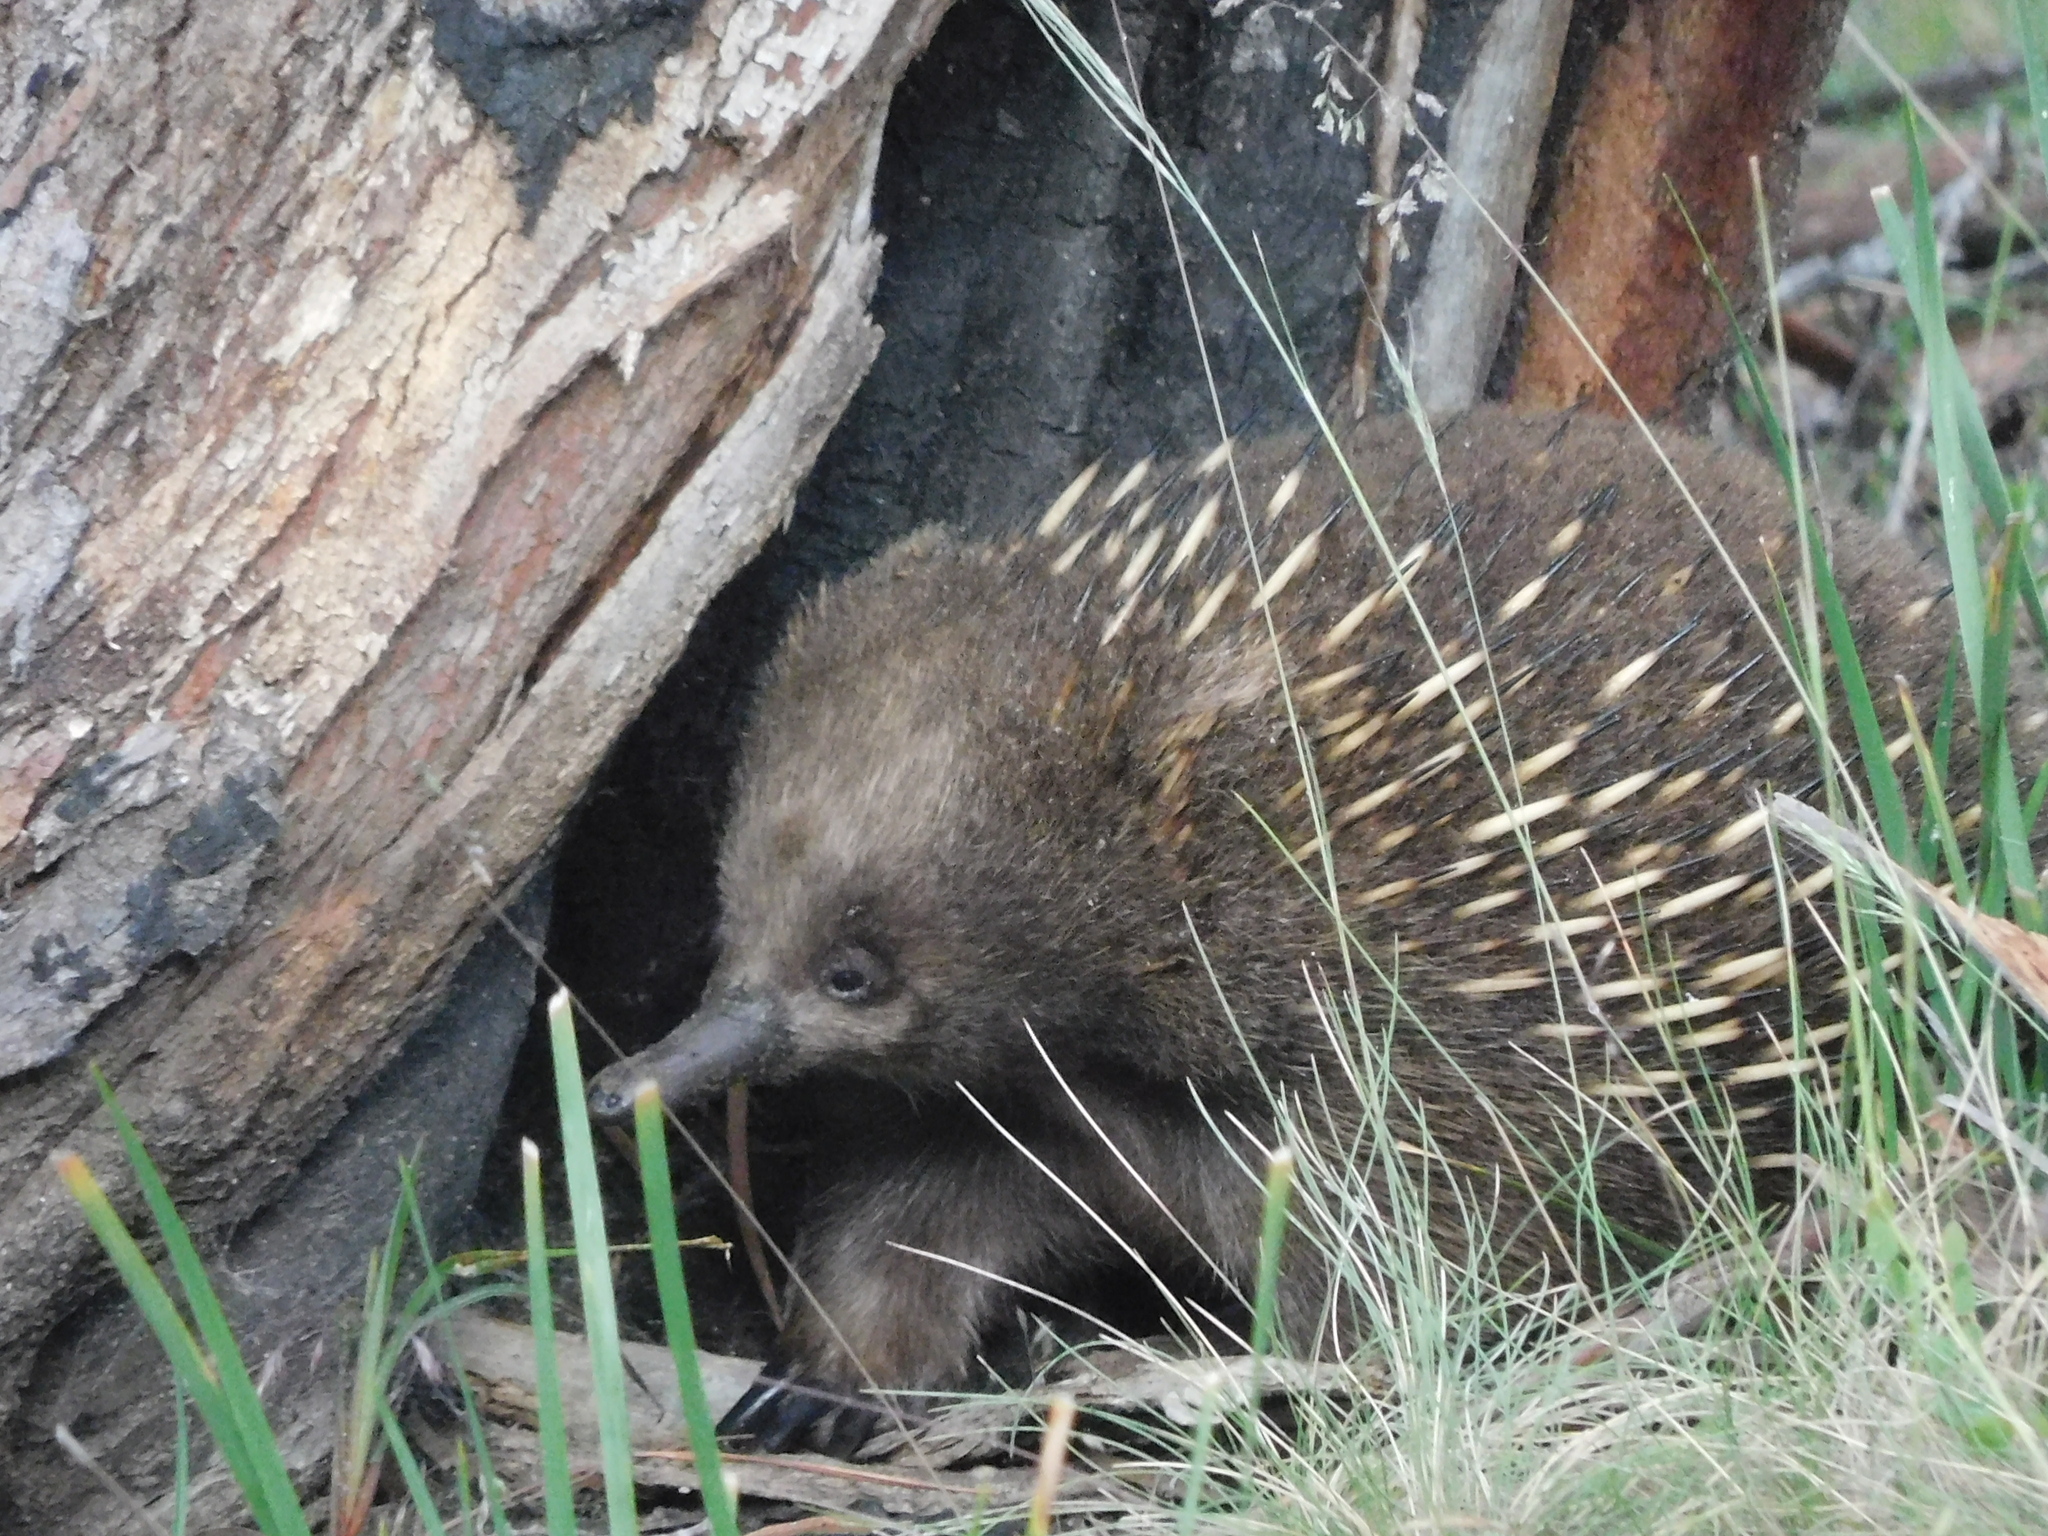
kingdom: Animalia
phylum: Chordata
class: Mammalia
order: Monotremata
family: Tachyglossidae
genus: Tachyglossus
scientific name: Tachyglossus aculeatus
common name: Short-beaked echidna
